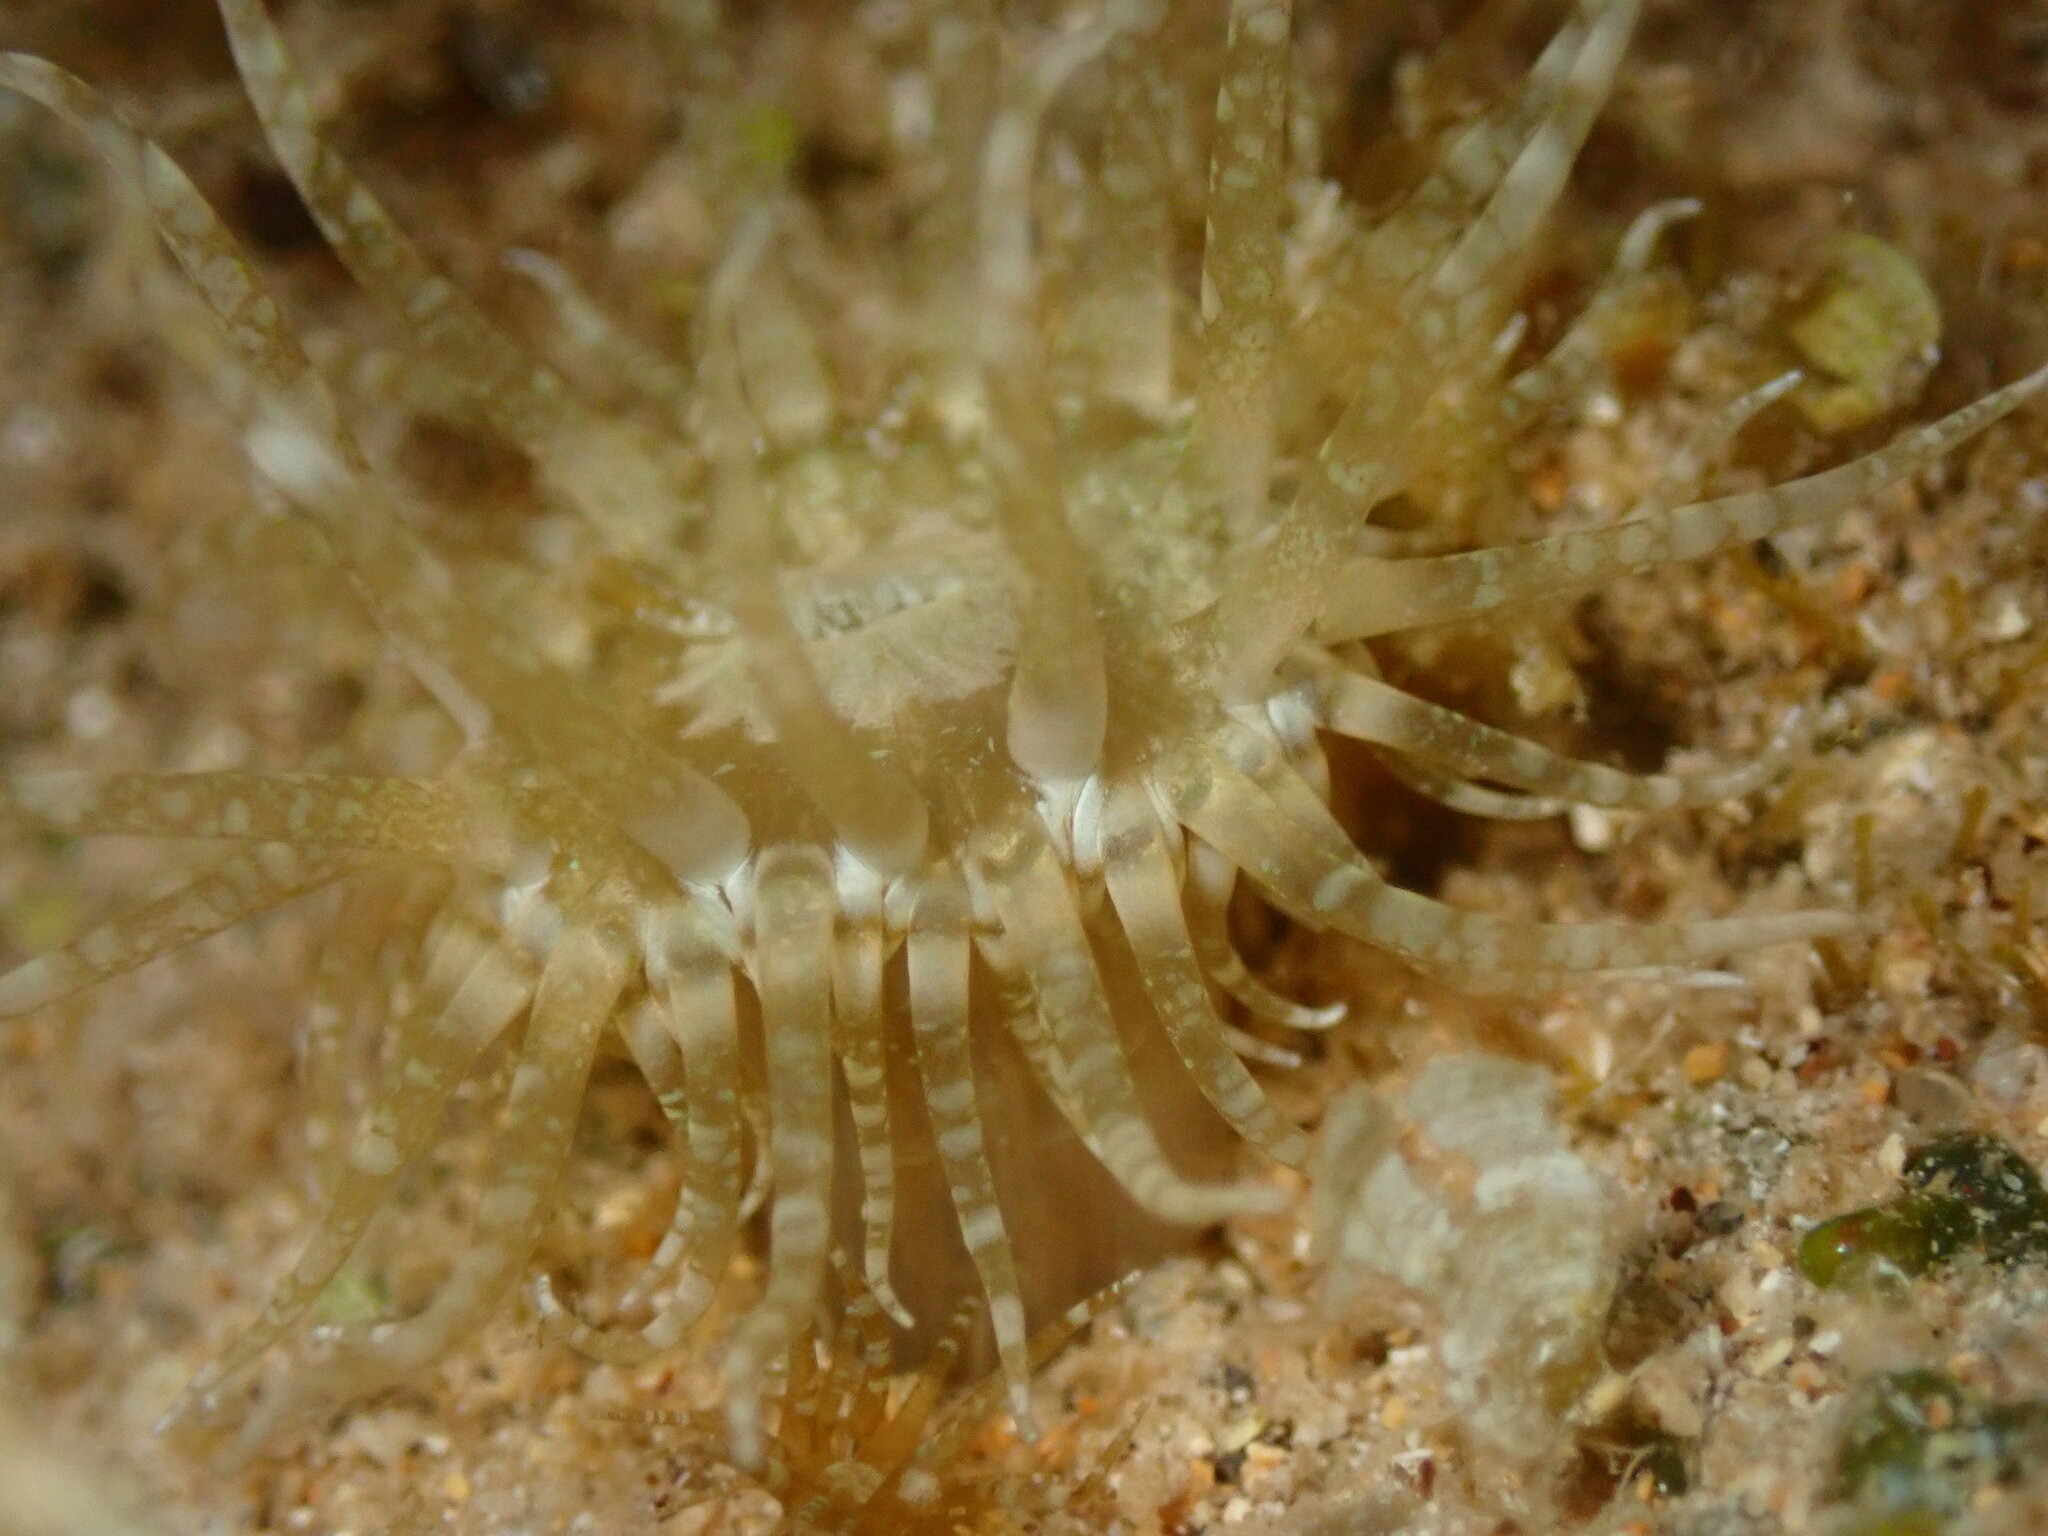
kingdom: Animalia
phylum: Cnidaria
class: Anthozoa
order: Actiniaria
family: Aiptasiidae
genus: Exaiptasia
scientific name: Exaiptasia diaphana
